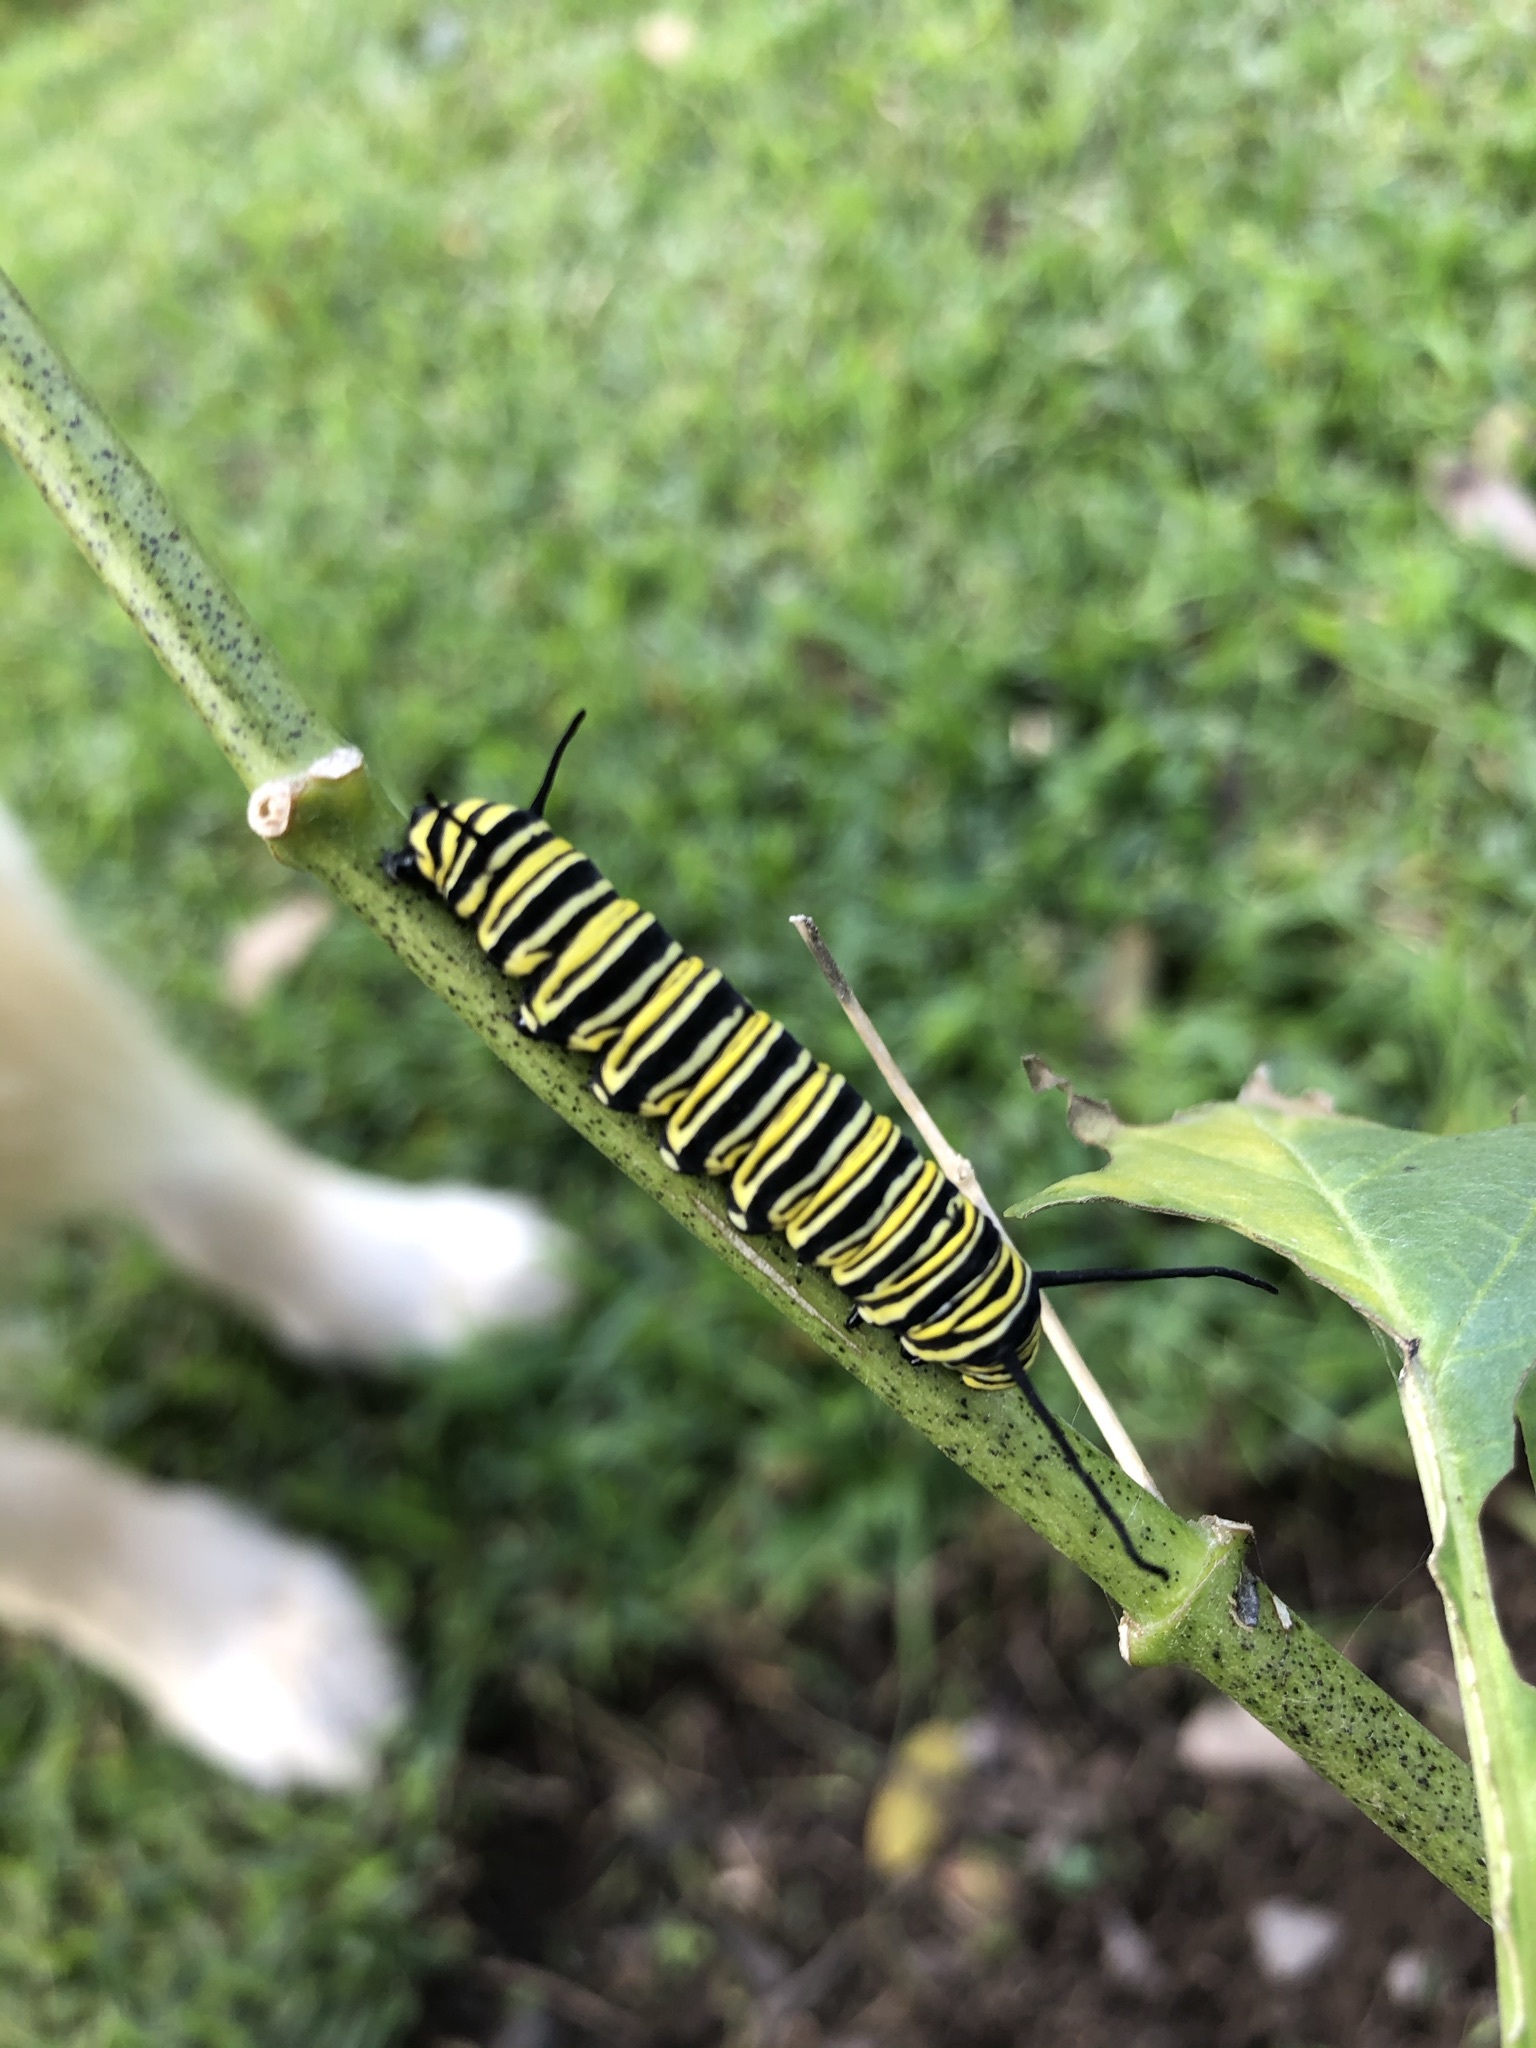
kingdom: Animalia
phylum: Arthropoda
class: Insecta
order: Lepidoptera
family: Nymphalidae
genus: Danaus
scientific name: Danaus plexippus
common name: Monarch
